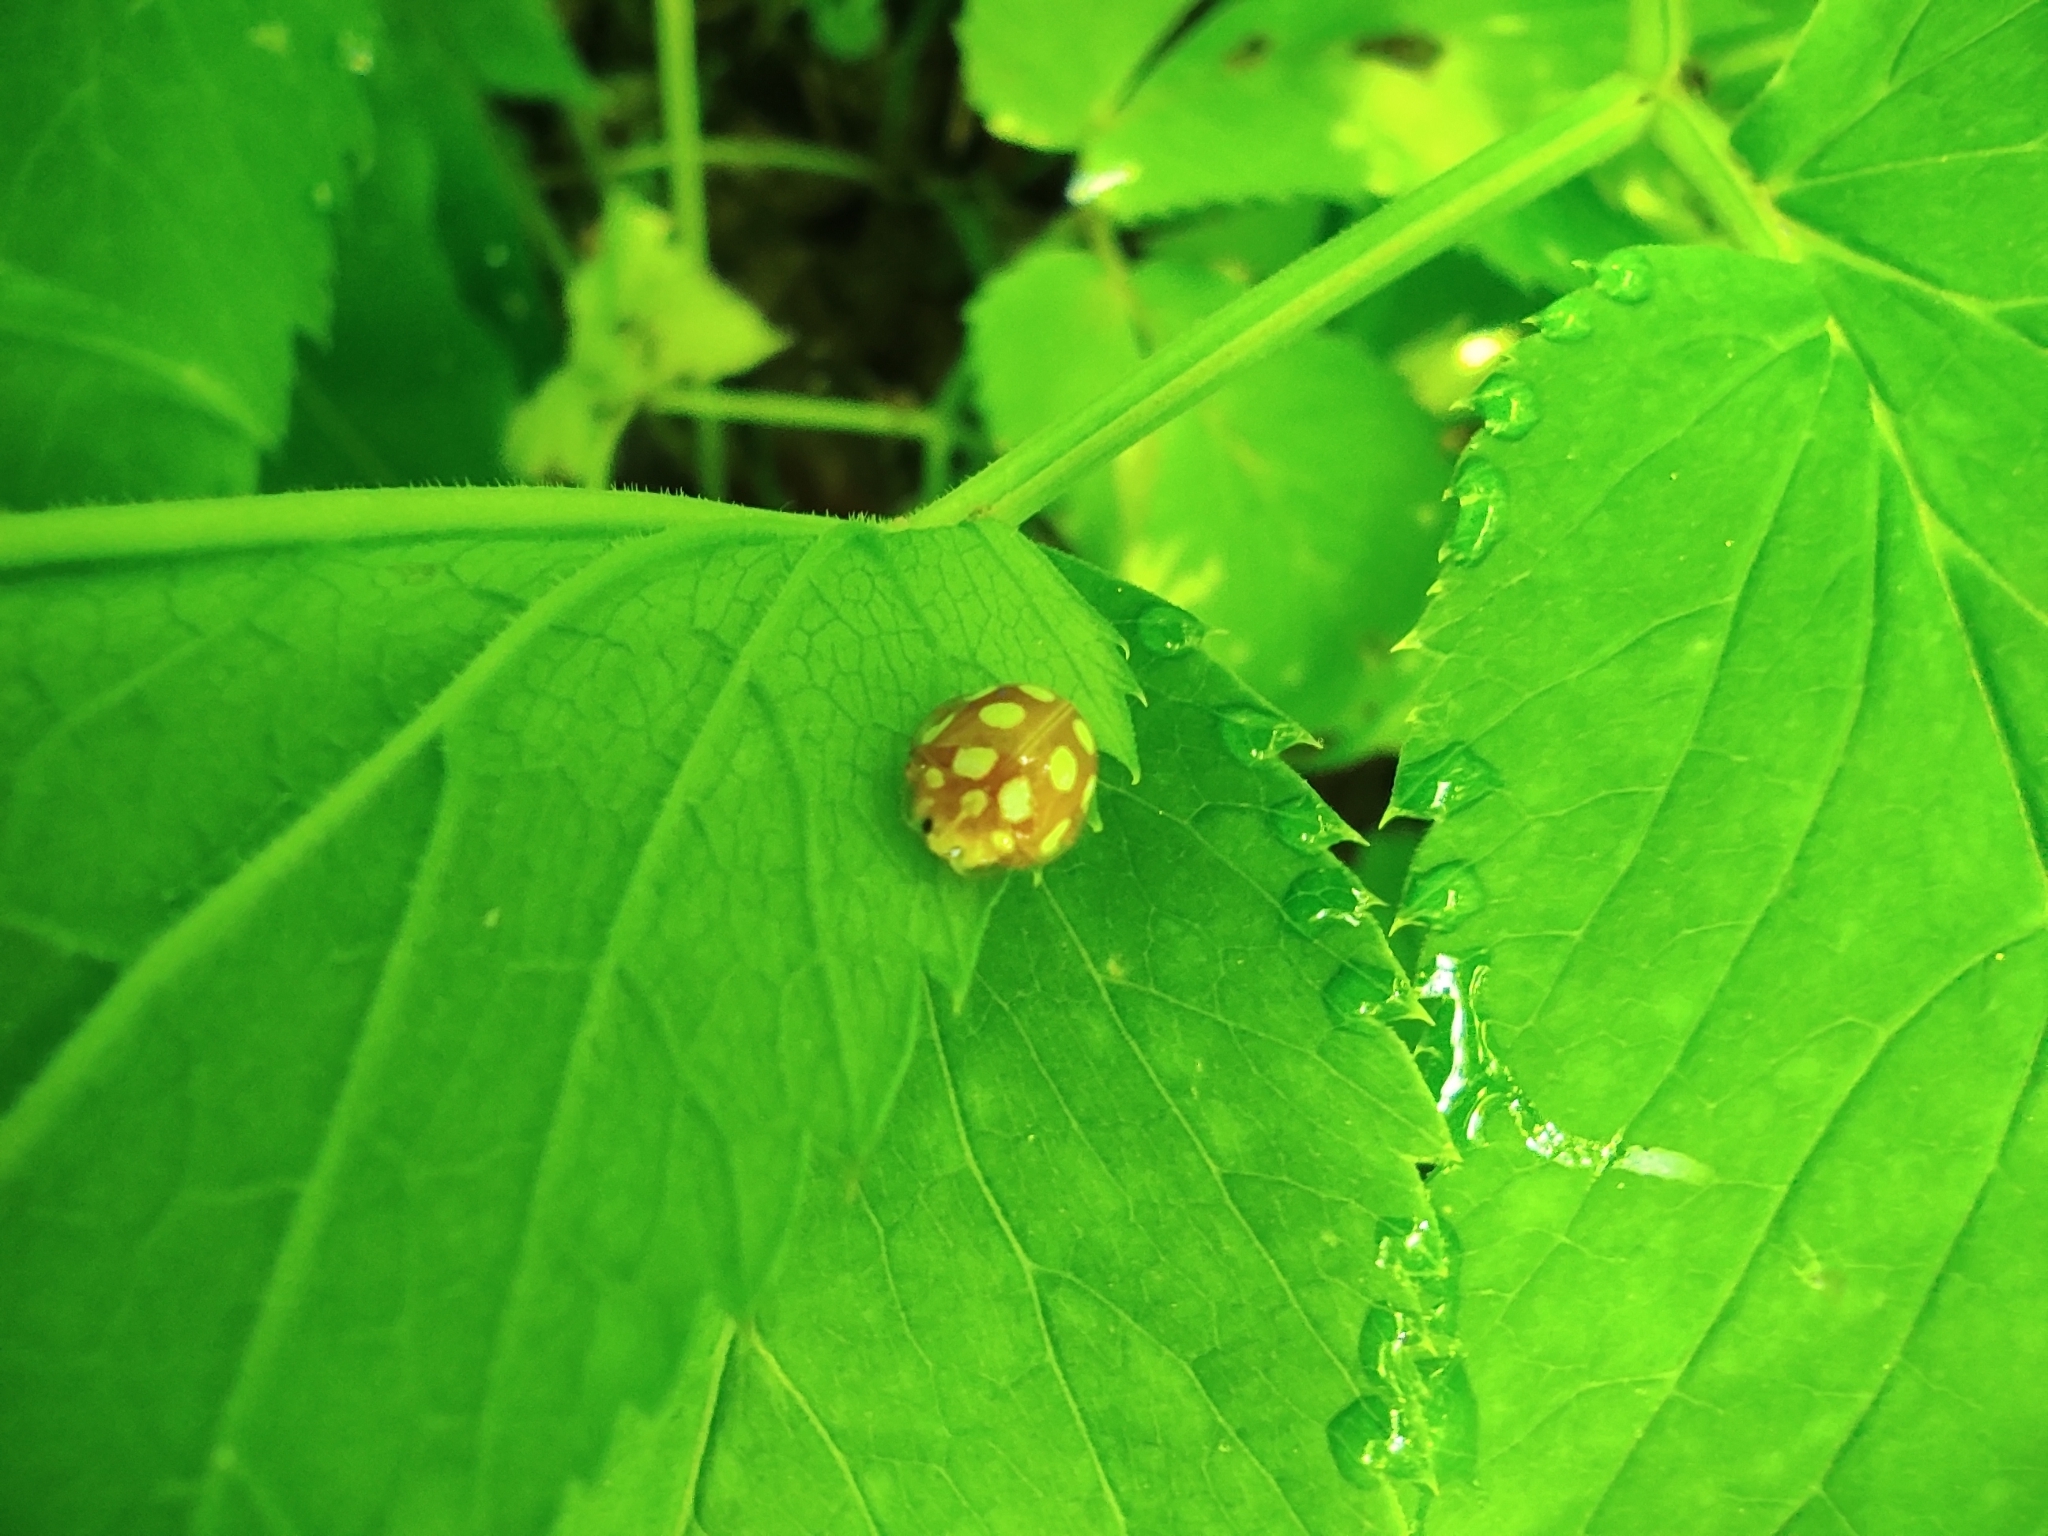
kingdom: Animalia
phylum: Arthropoda
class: Insecta
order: Coleoptera
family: Coccinellidae
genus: Halyzia
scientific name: Halyzia sedecimguttata
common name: Orange ladybird
